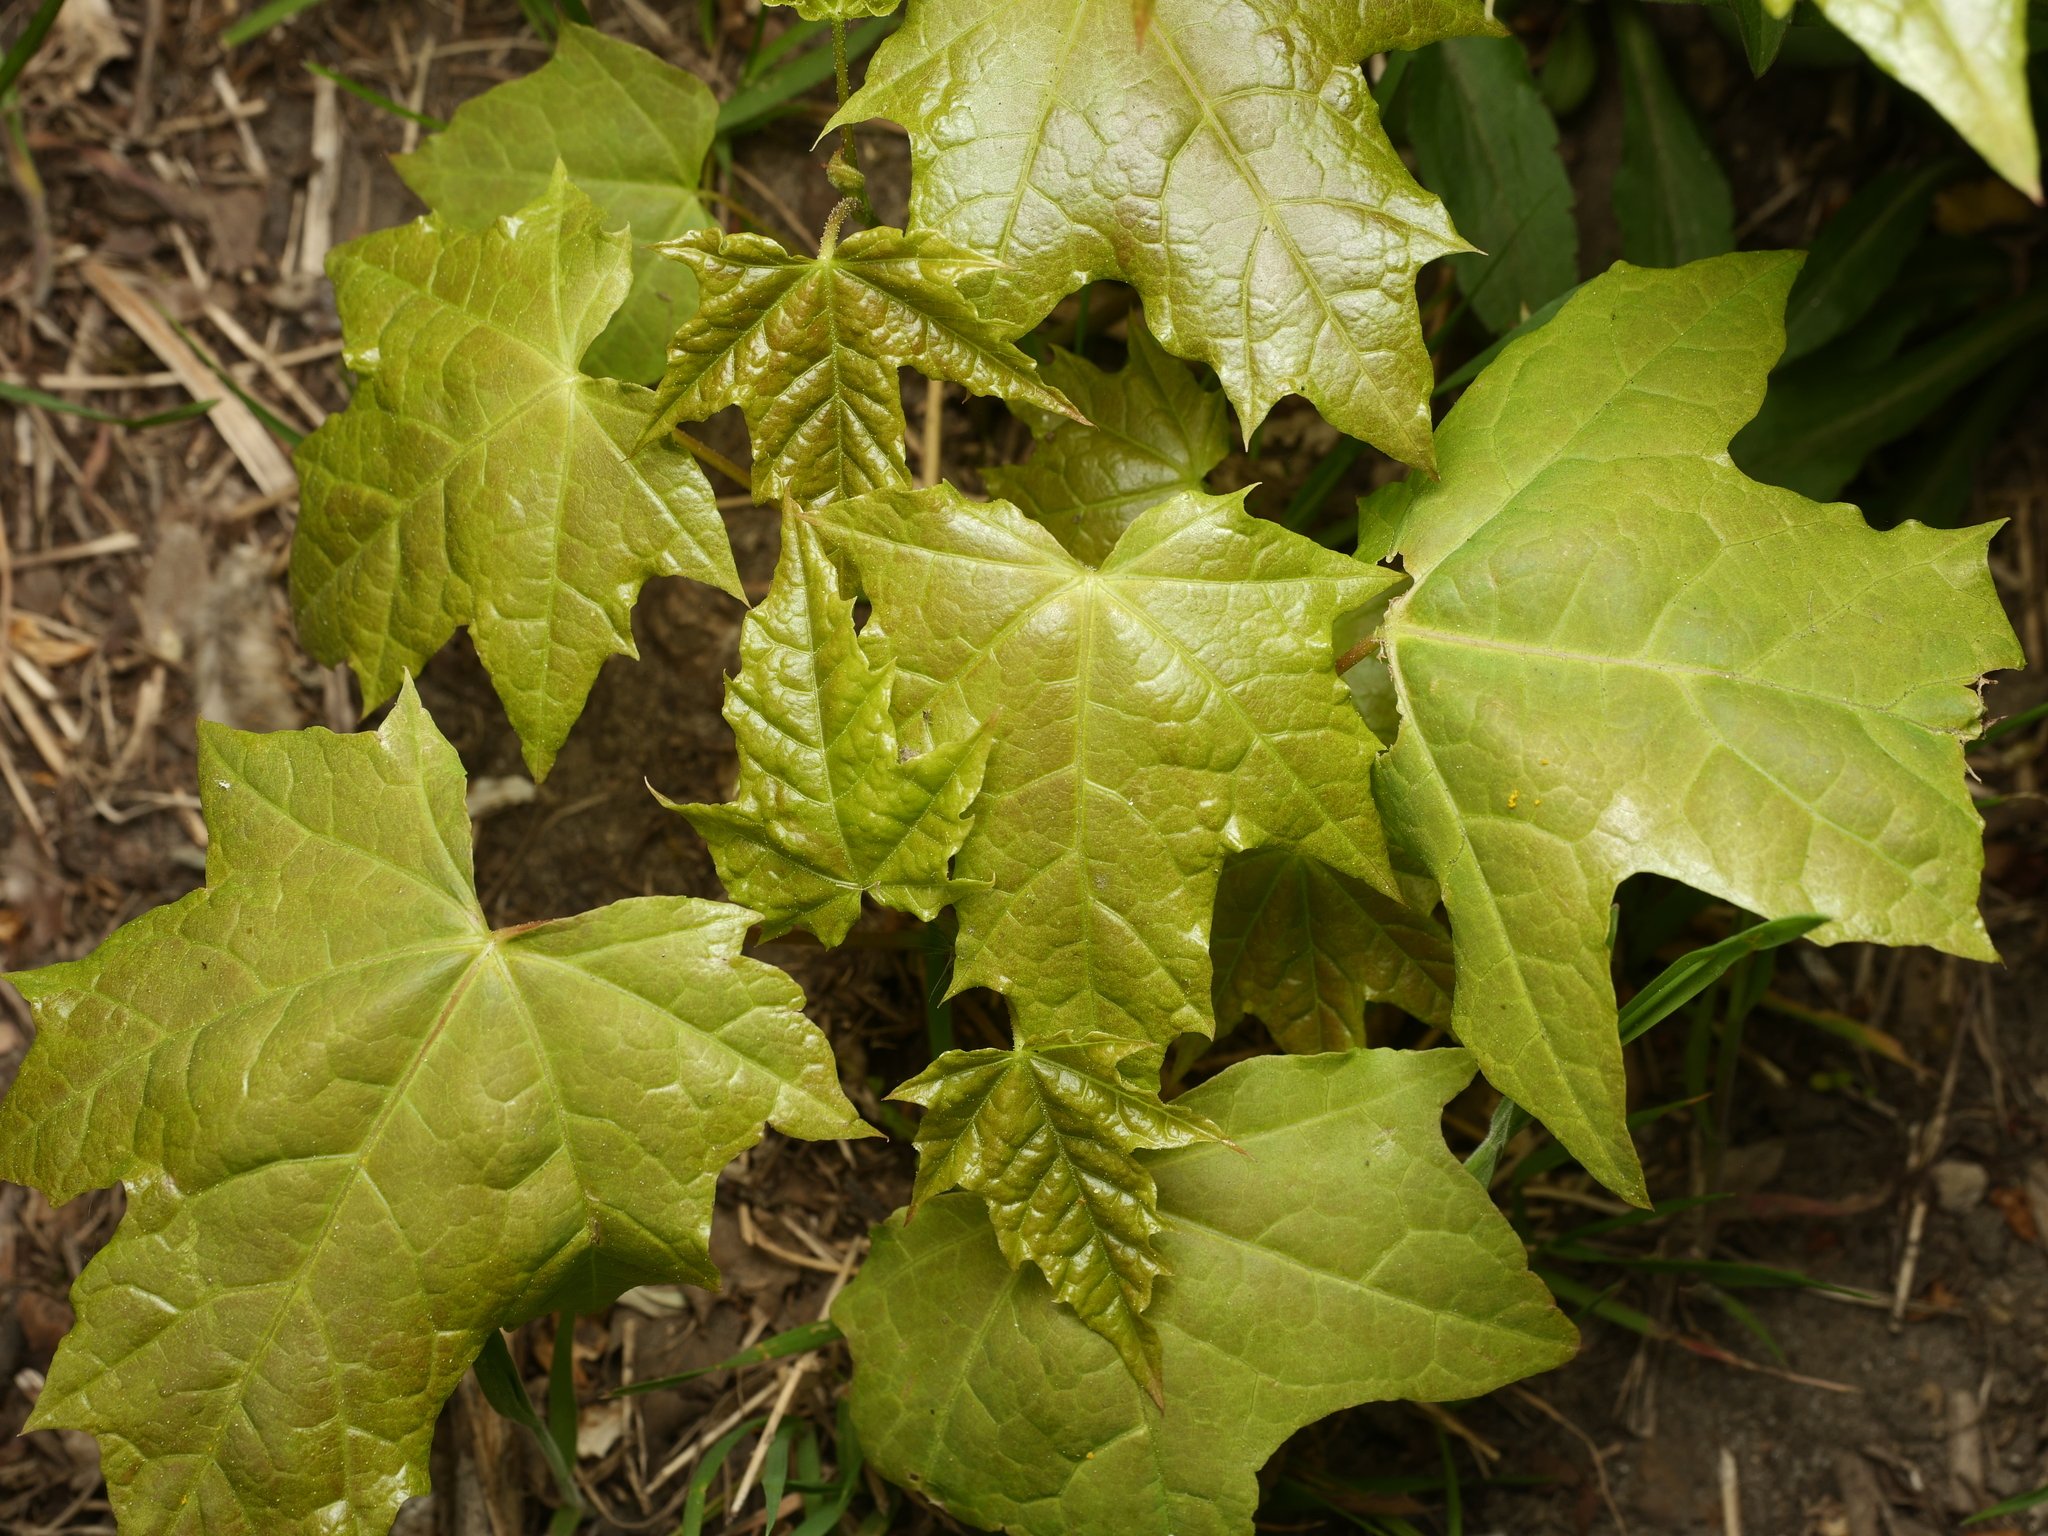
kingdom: Plantae
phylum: Tracheophyta
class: Magnoliopsida
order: Sapindales
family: Sapindaceae
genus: Acer
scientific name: Acer platanoides
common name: Norway maple
